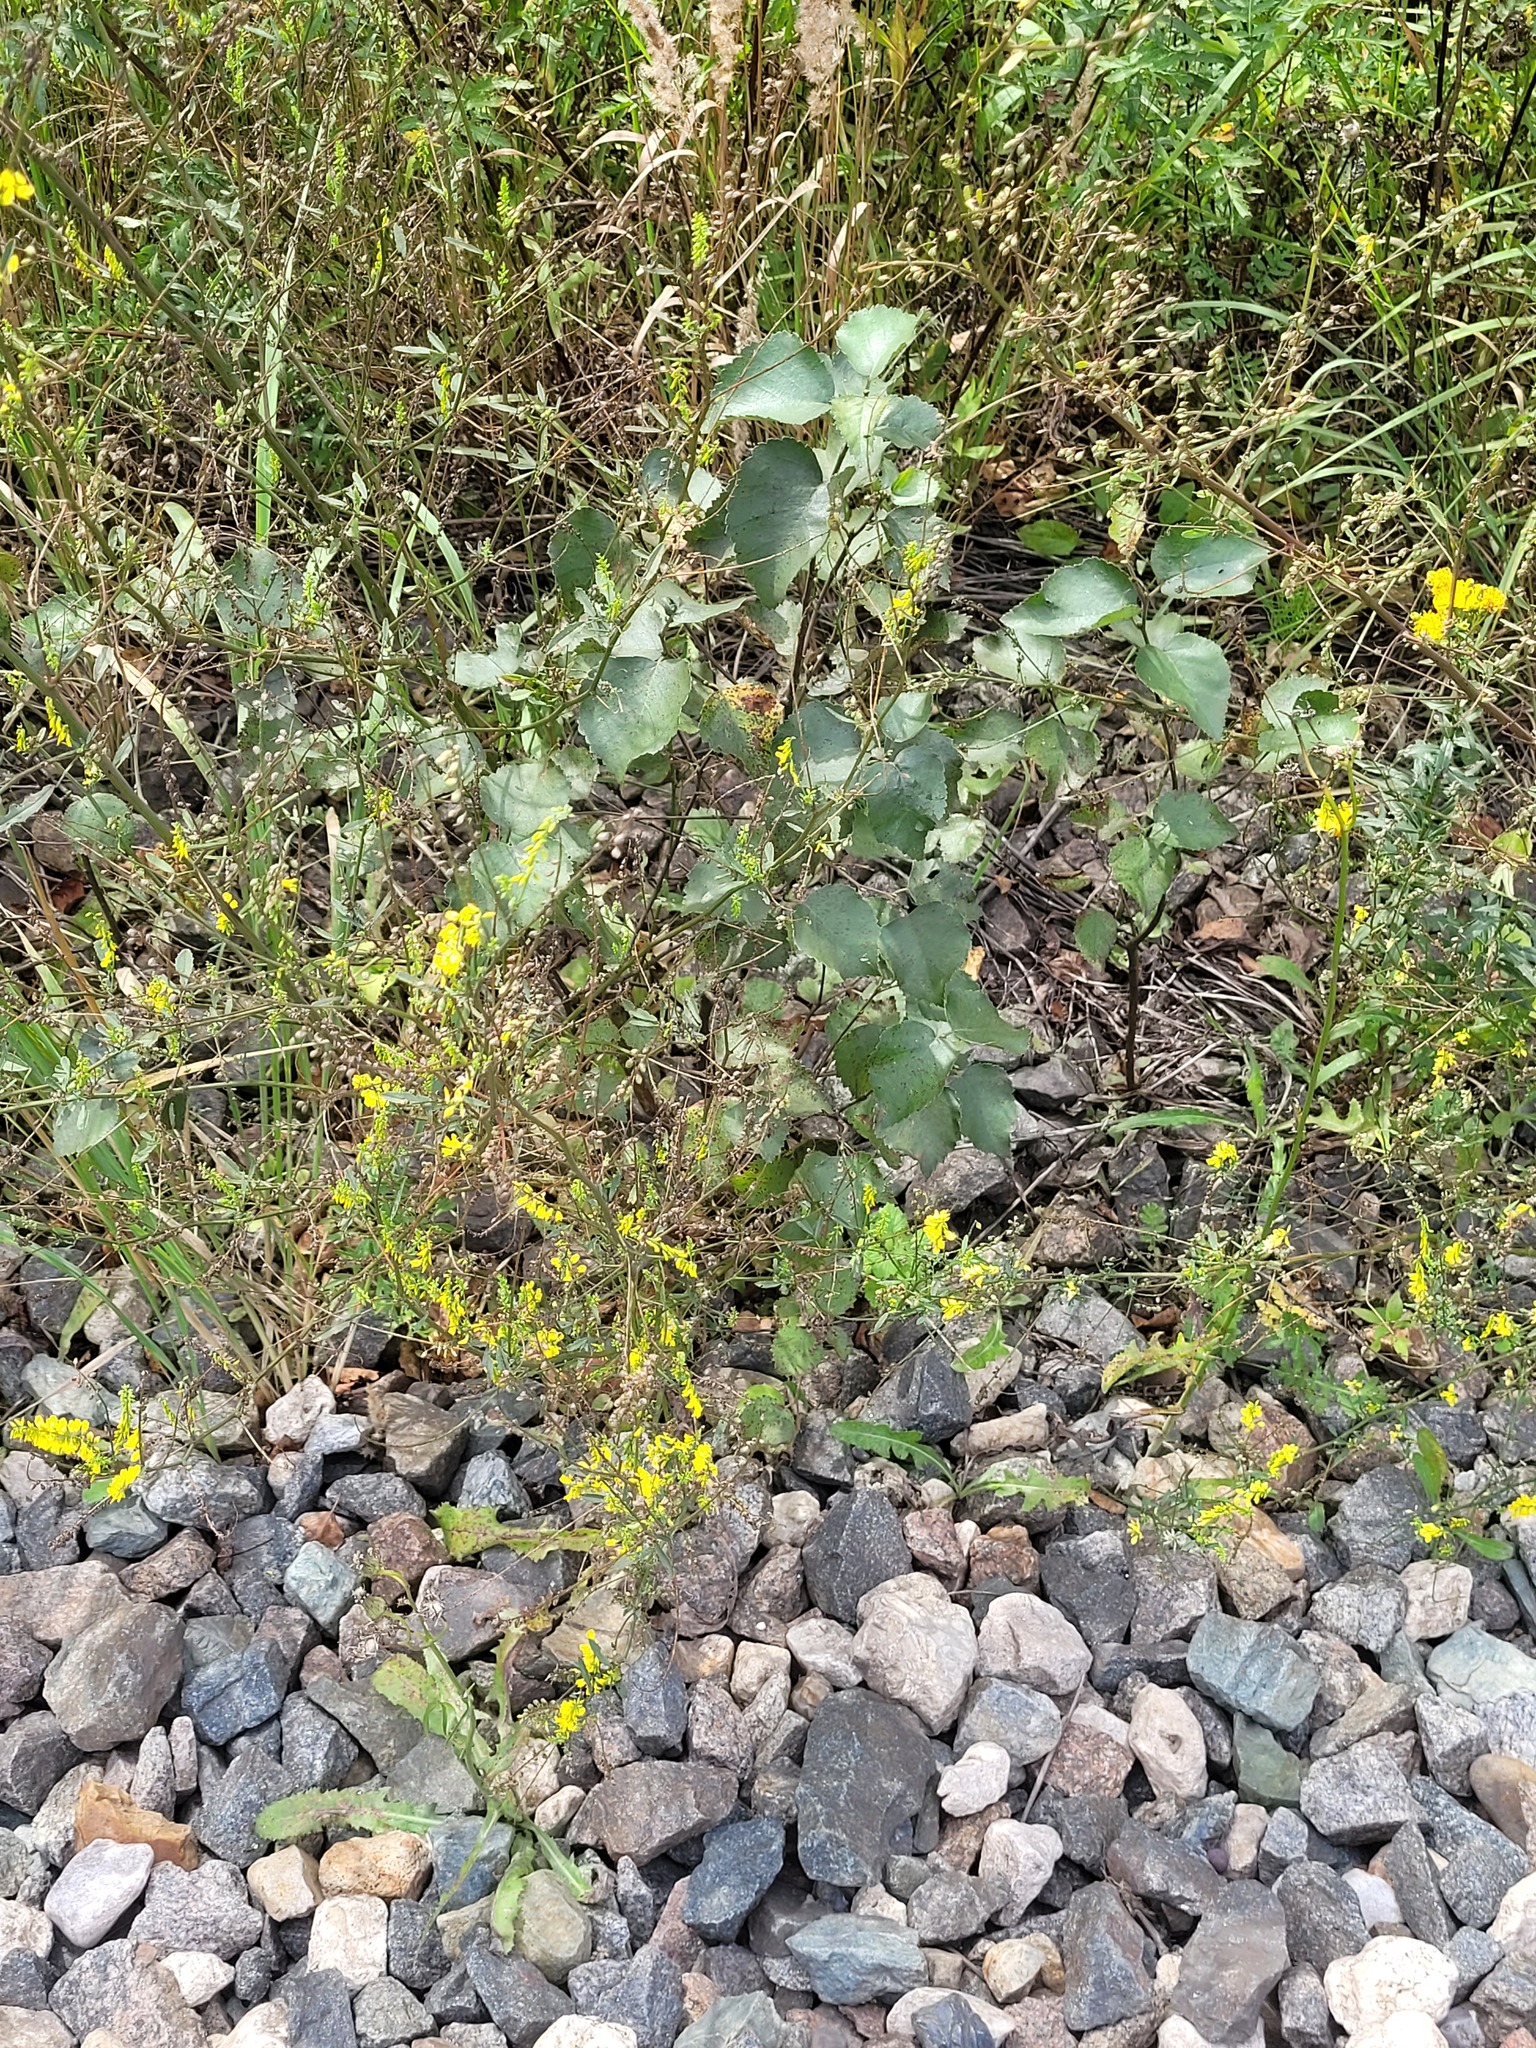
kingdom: Plantae
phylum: Tracheophyta
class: Magnoliopsida
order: Fagales
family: Betulaceae
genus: Betula
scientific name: Betula pubescens
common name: Downy birch
